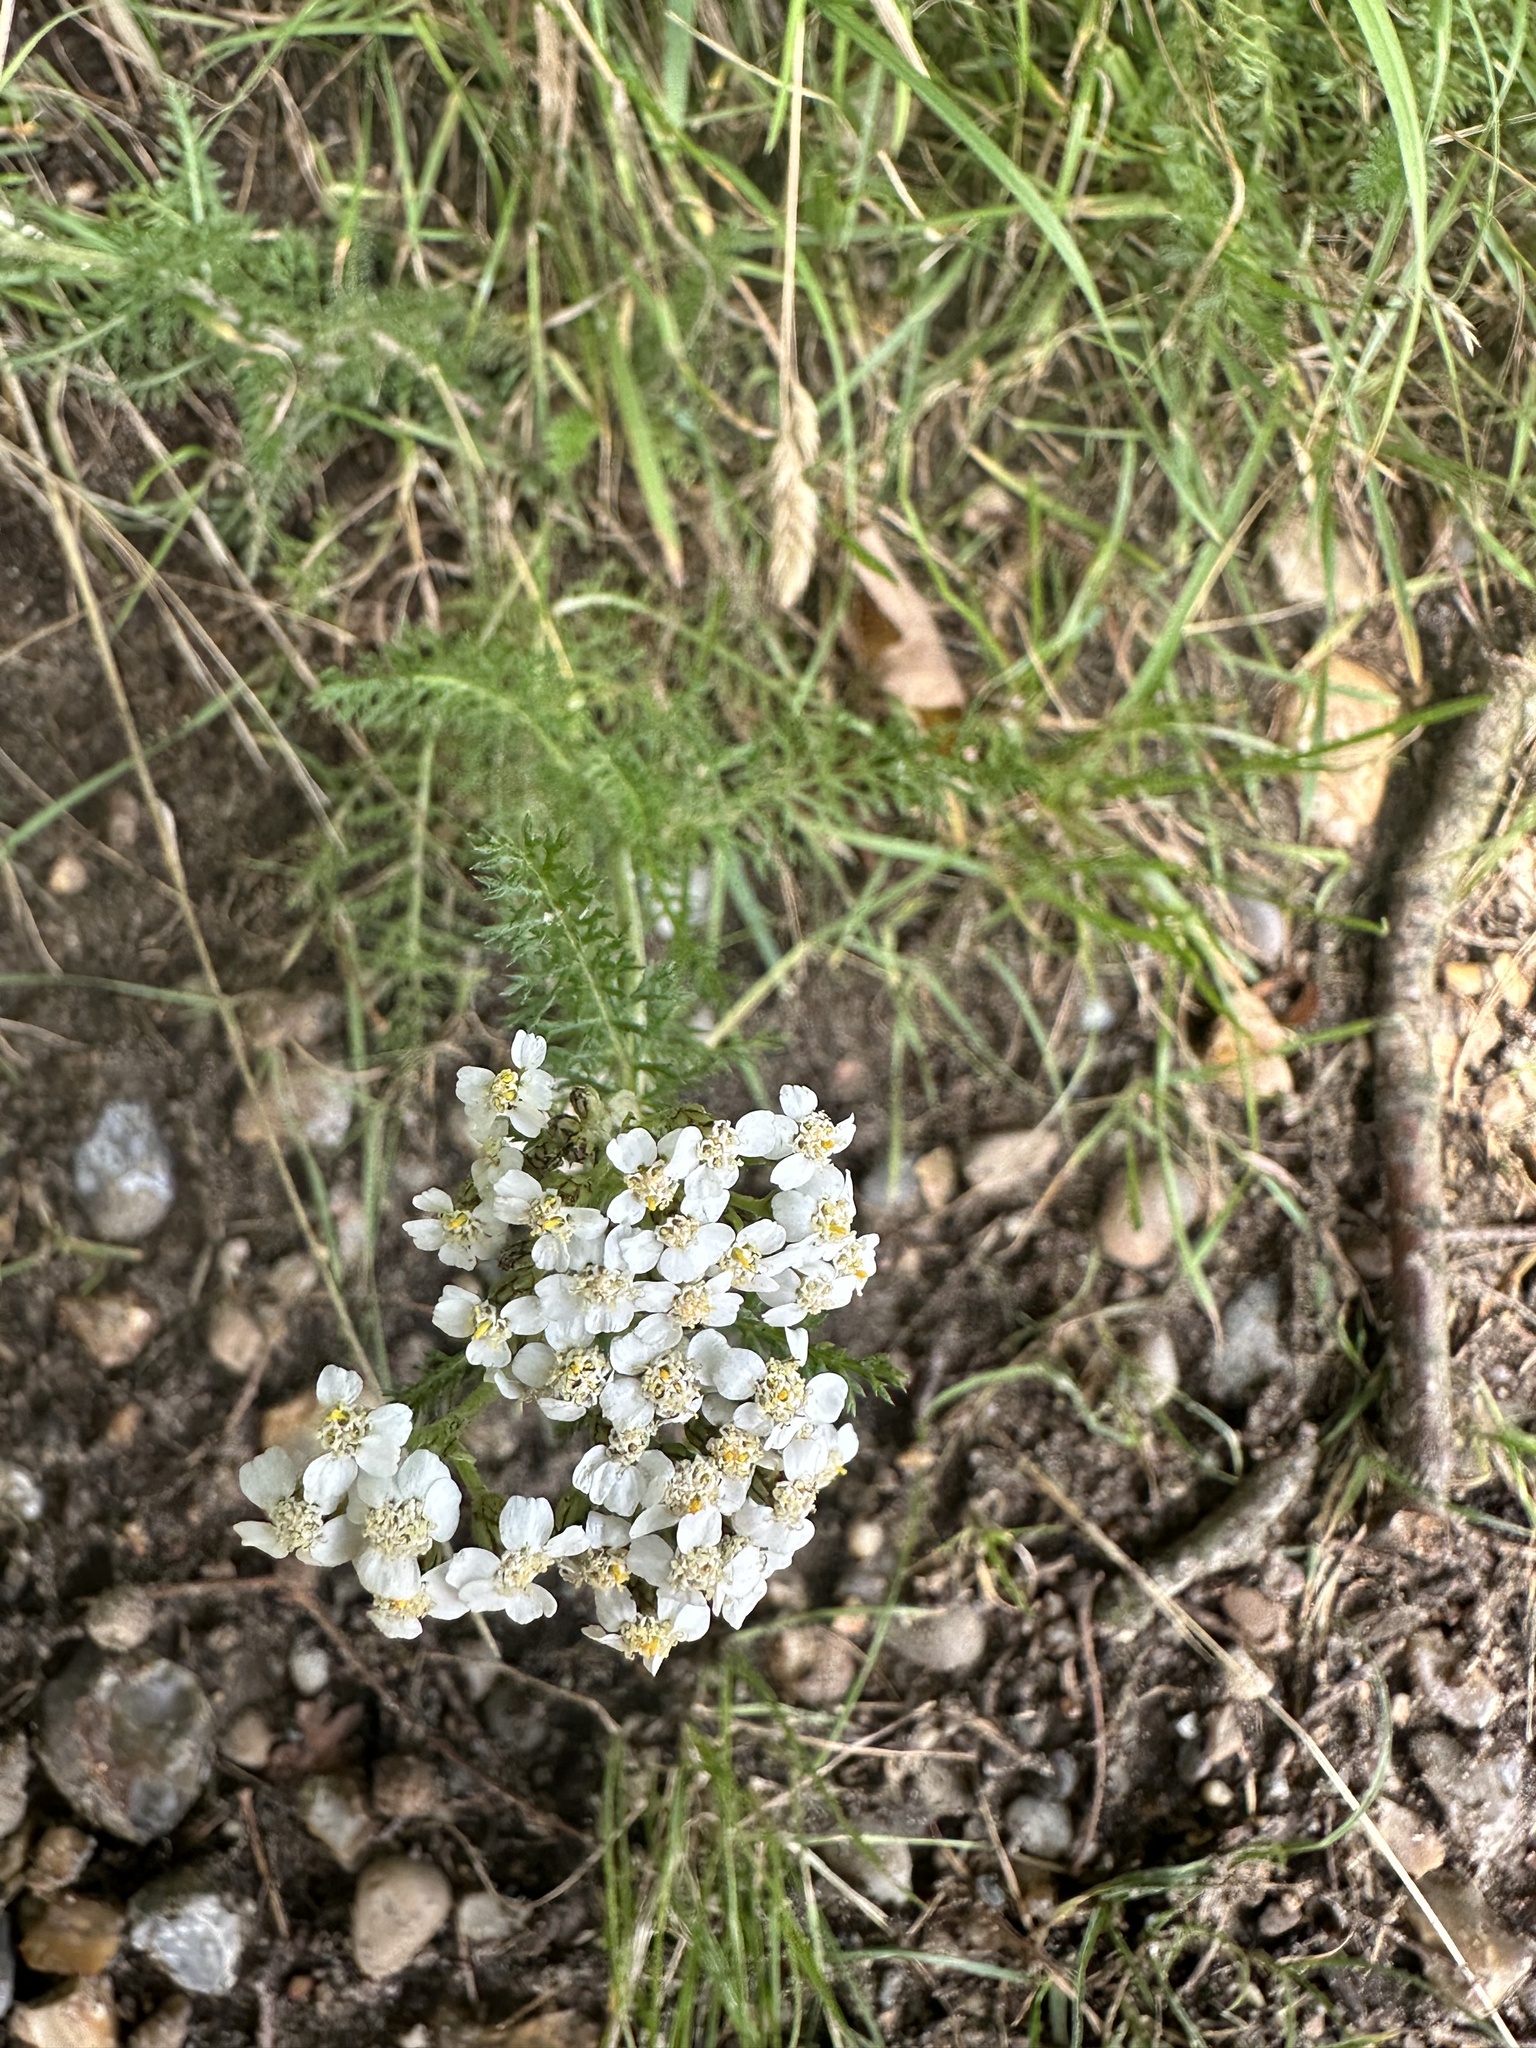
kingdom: Plantae
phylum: Tracheophyta
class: Magnoliopsida
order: Asterales
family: Asteraceae
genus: Achillea
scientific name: Achillea millefolium
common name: Yarrow
